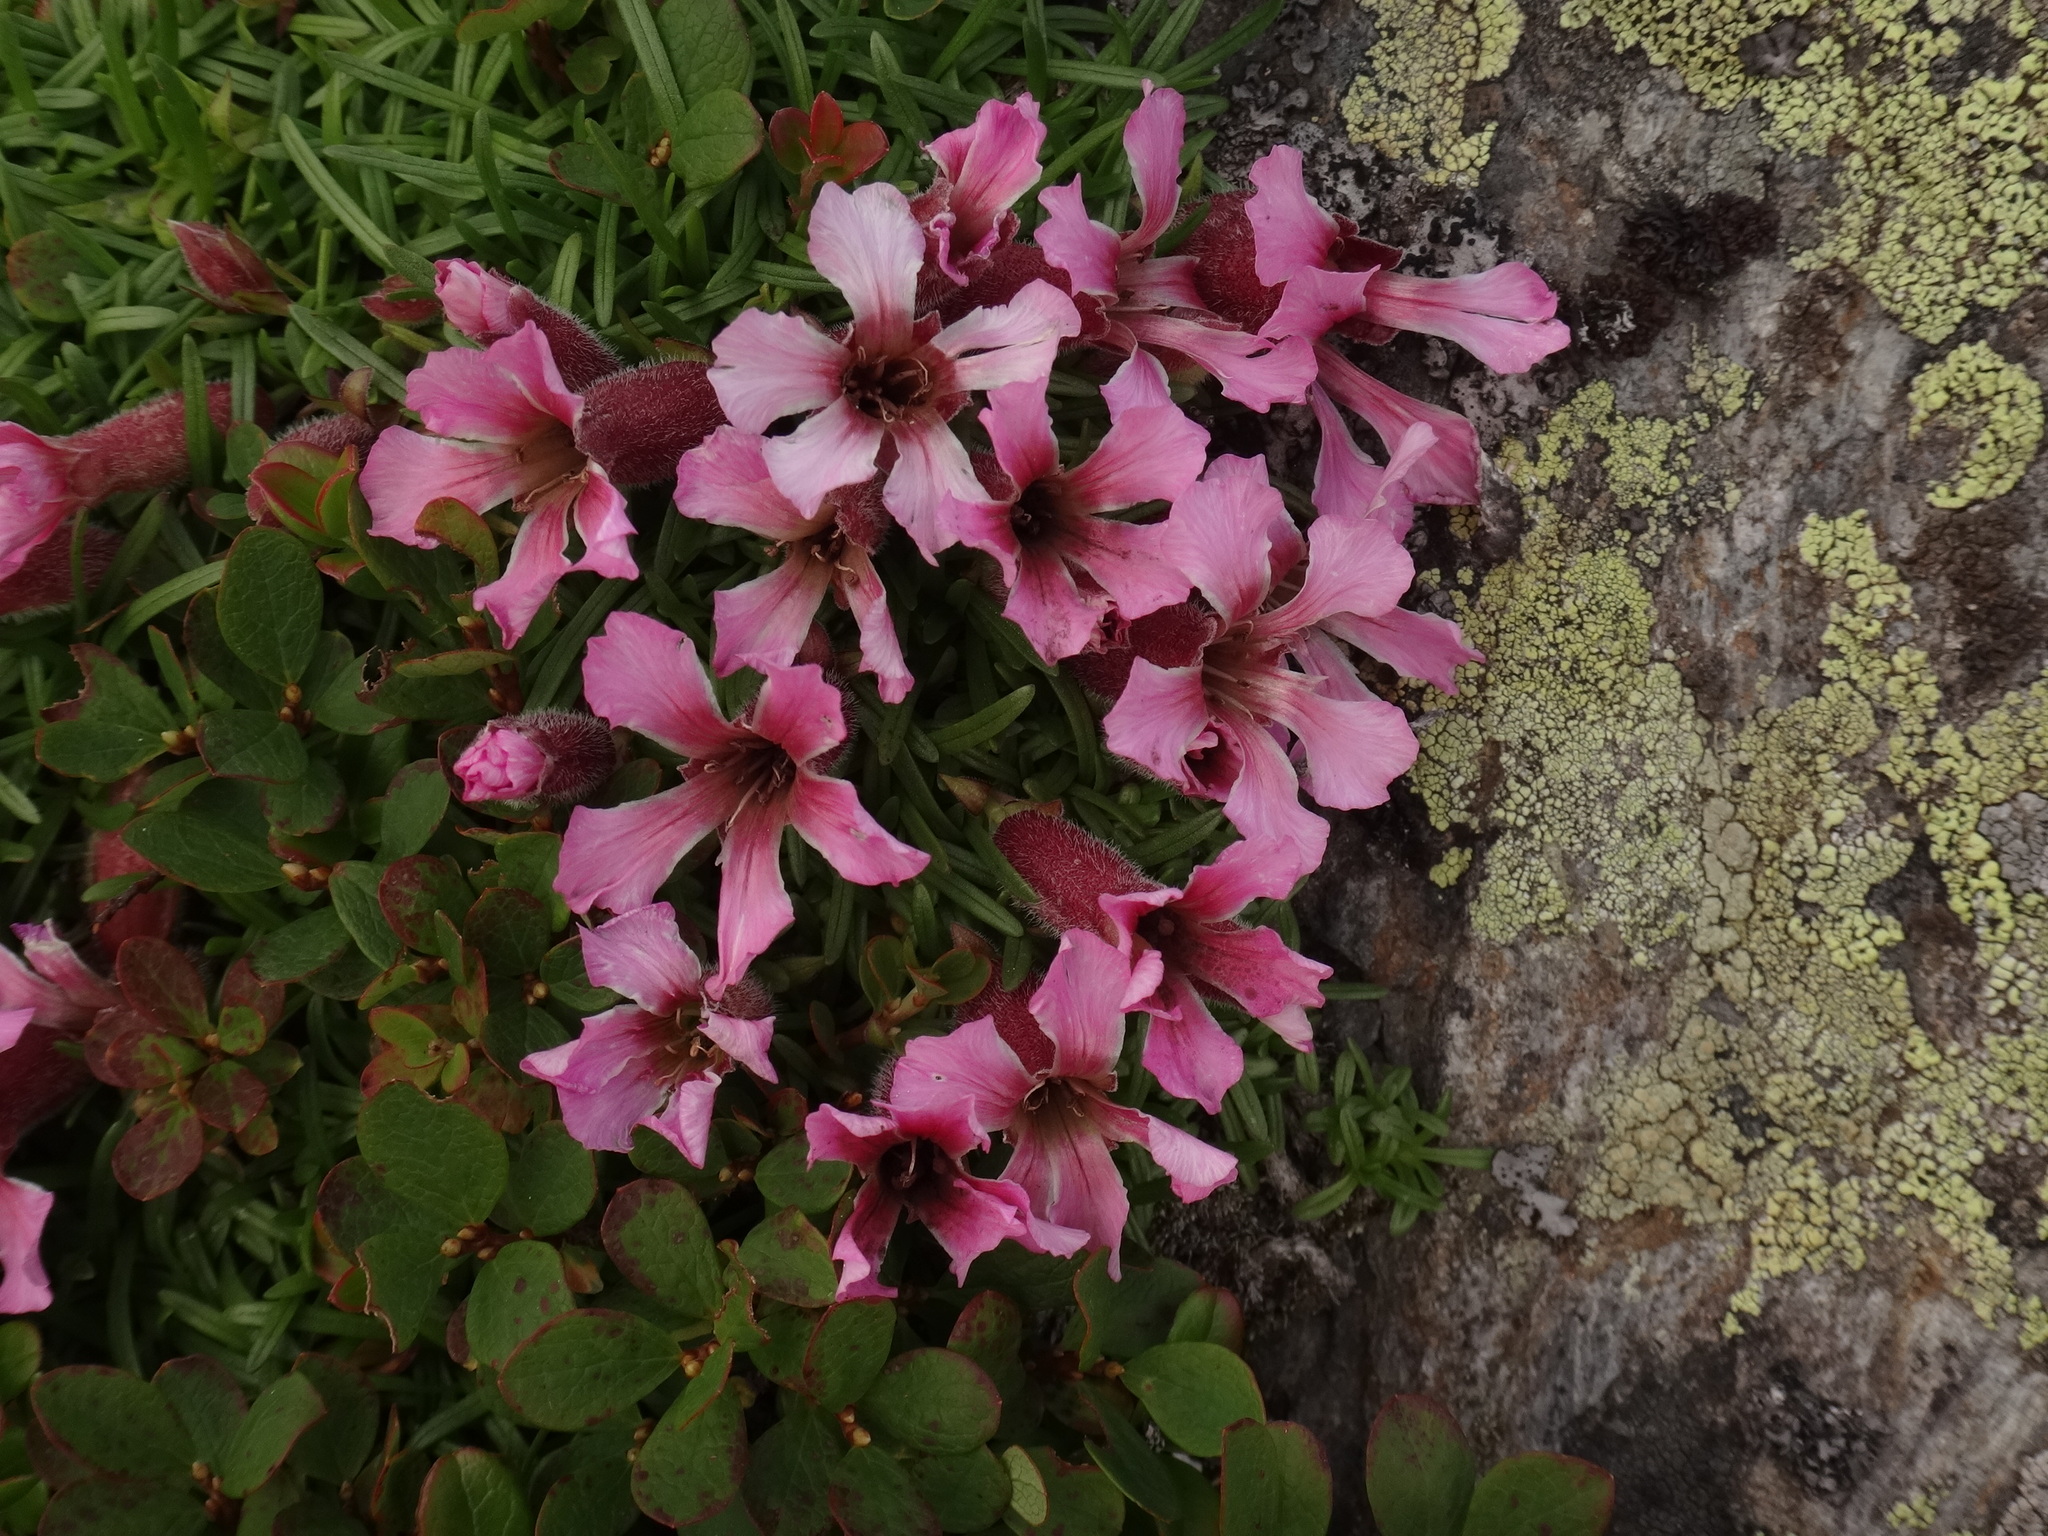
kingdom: Plantae
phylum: Tracheophyta
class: Magnoliopsida
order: Caryophyllales
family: Caryophyllaceae
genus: Saponaria
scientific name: Saponaria pumila
